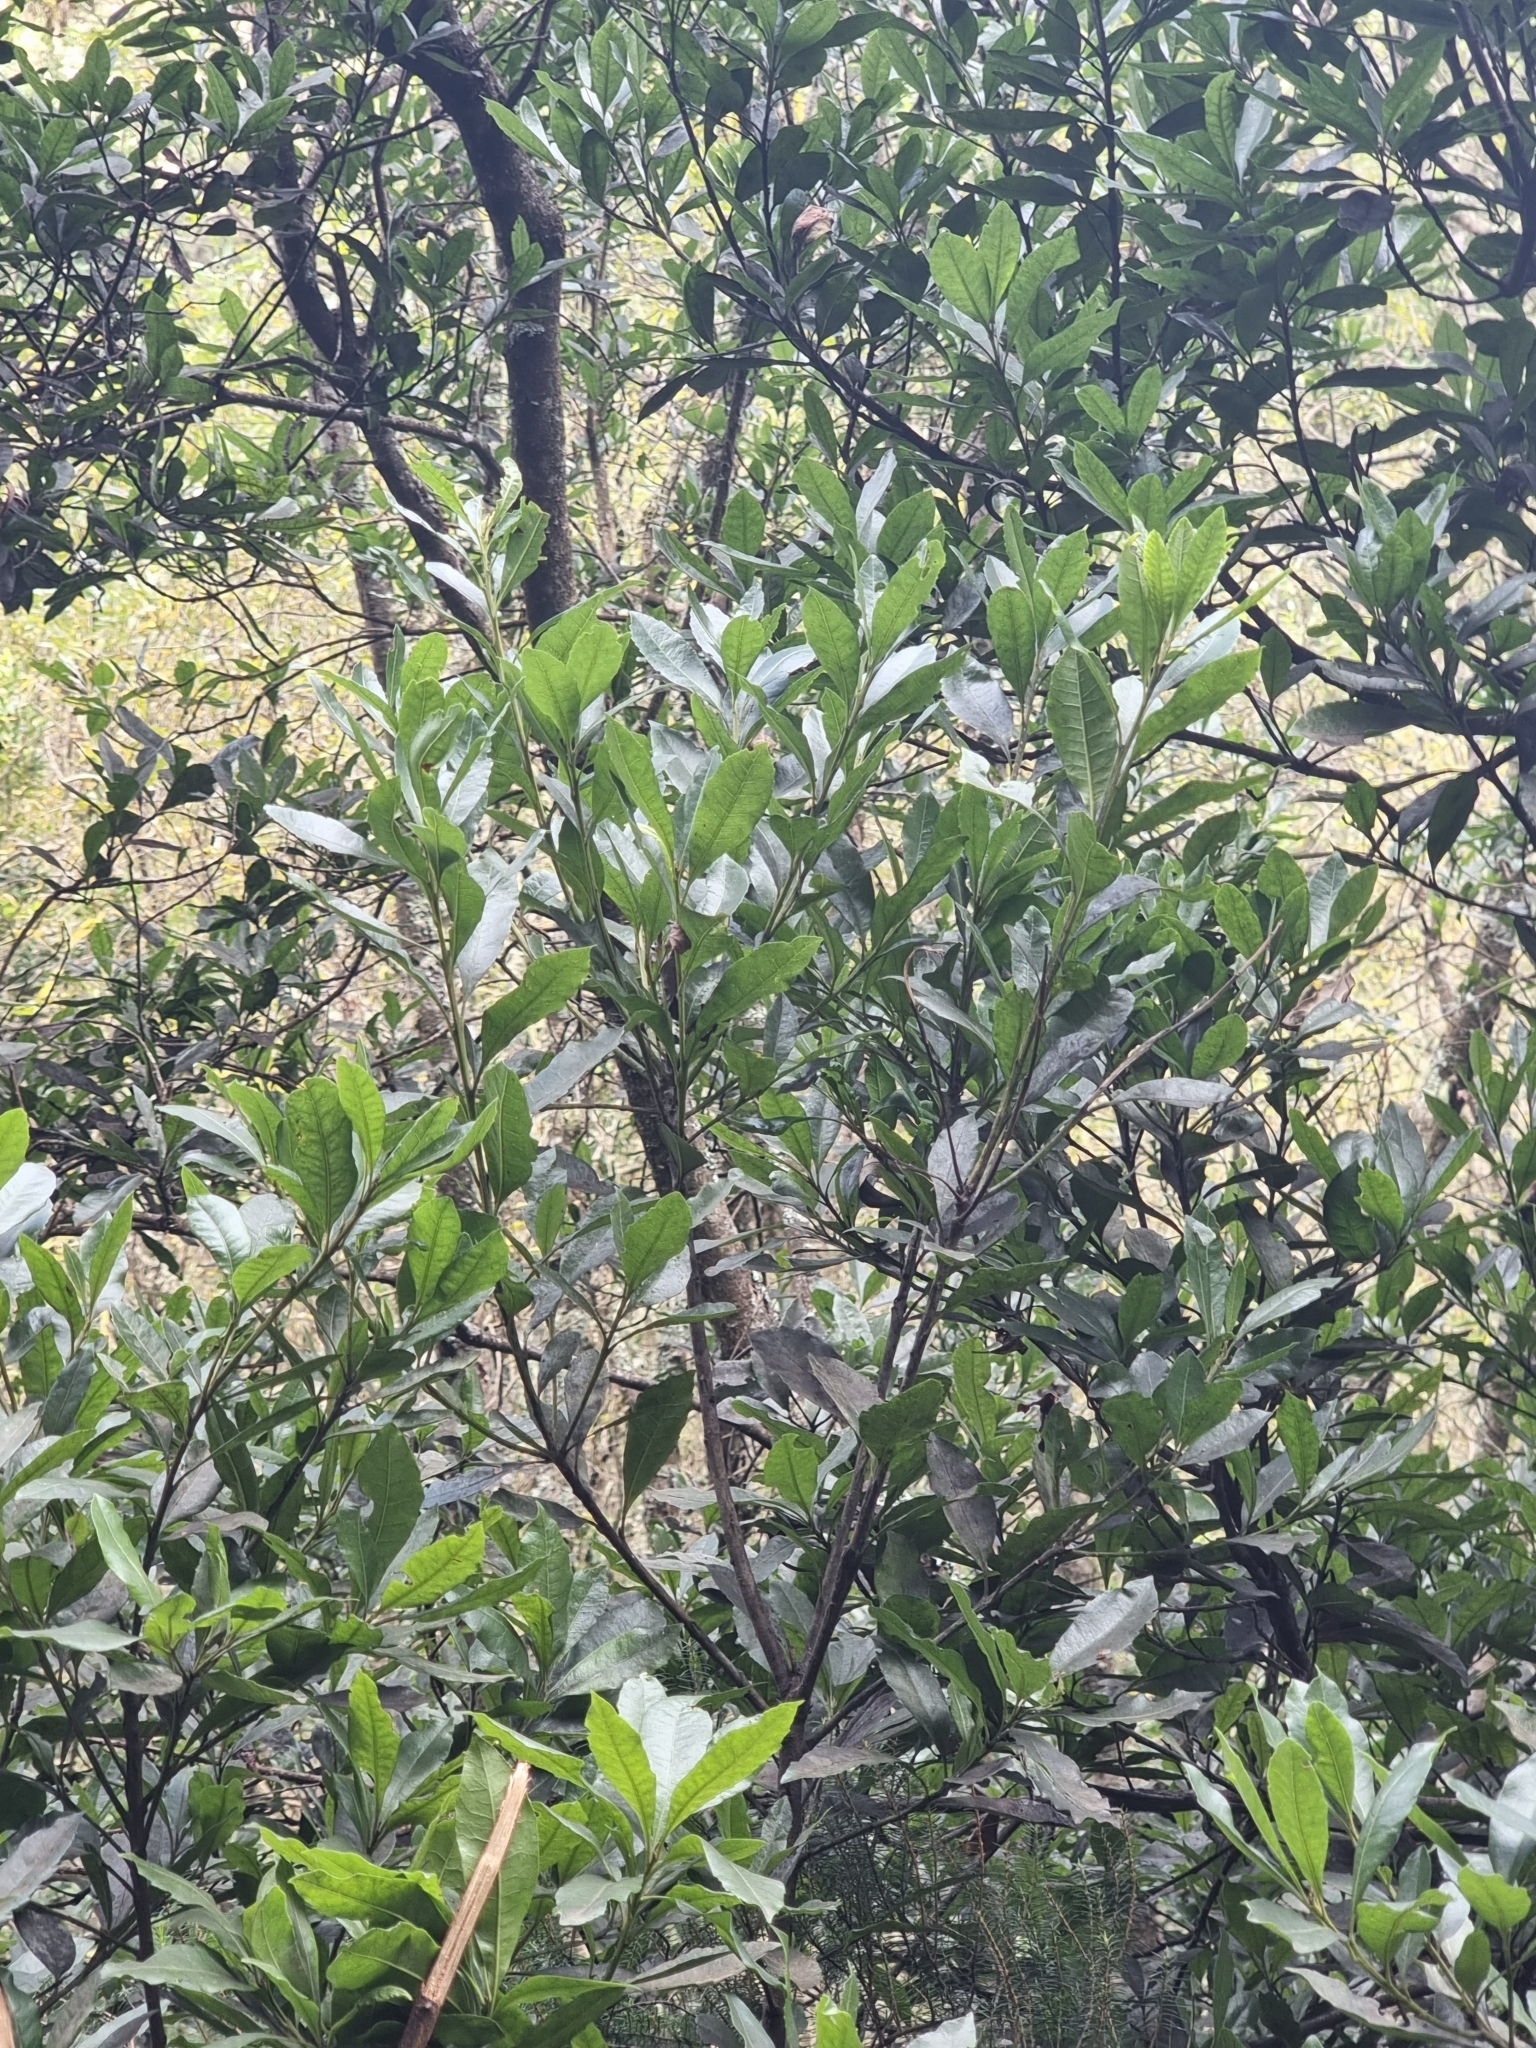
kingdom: Plantae
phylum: Tracheophyta
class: Magnoliopsida
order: Fagales
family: Myricaceae
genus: Morella
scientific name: Morella faya
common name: Firetree
